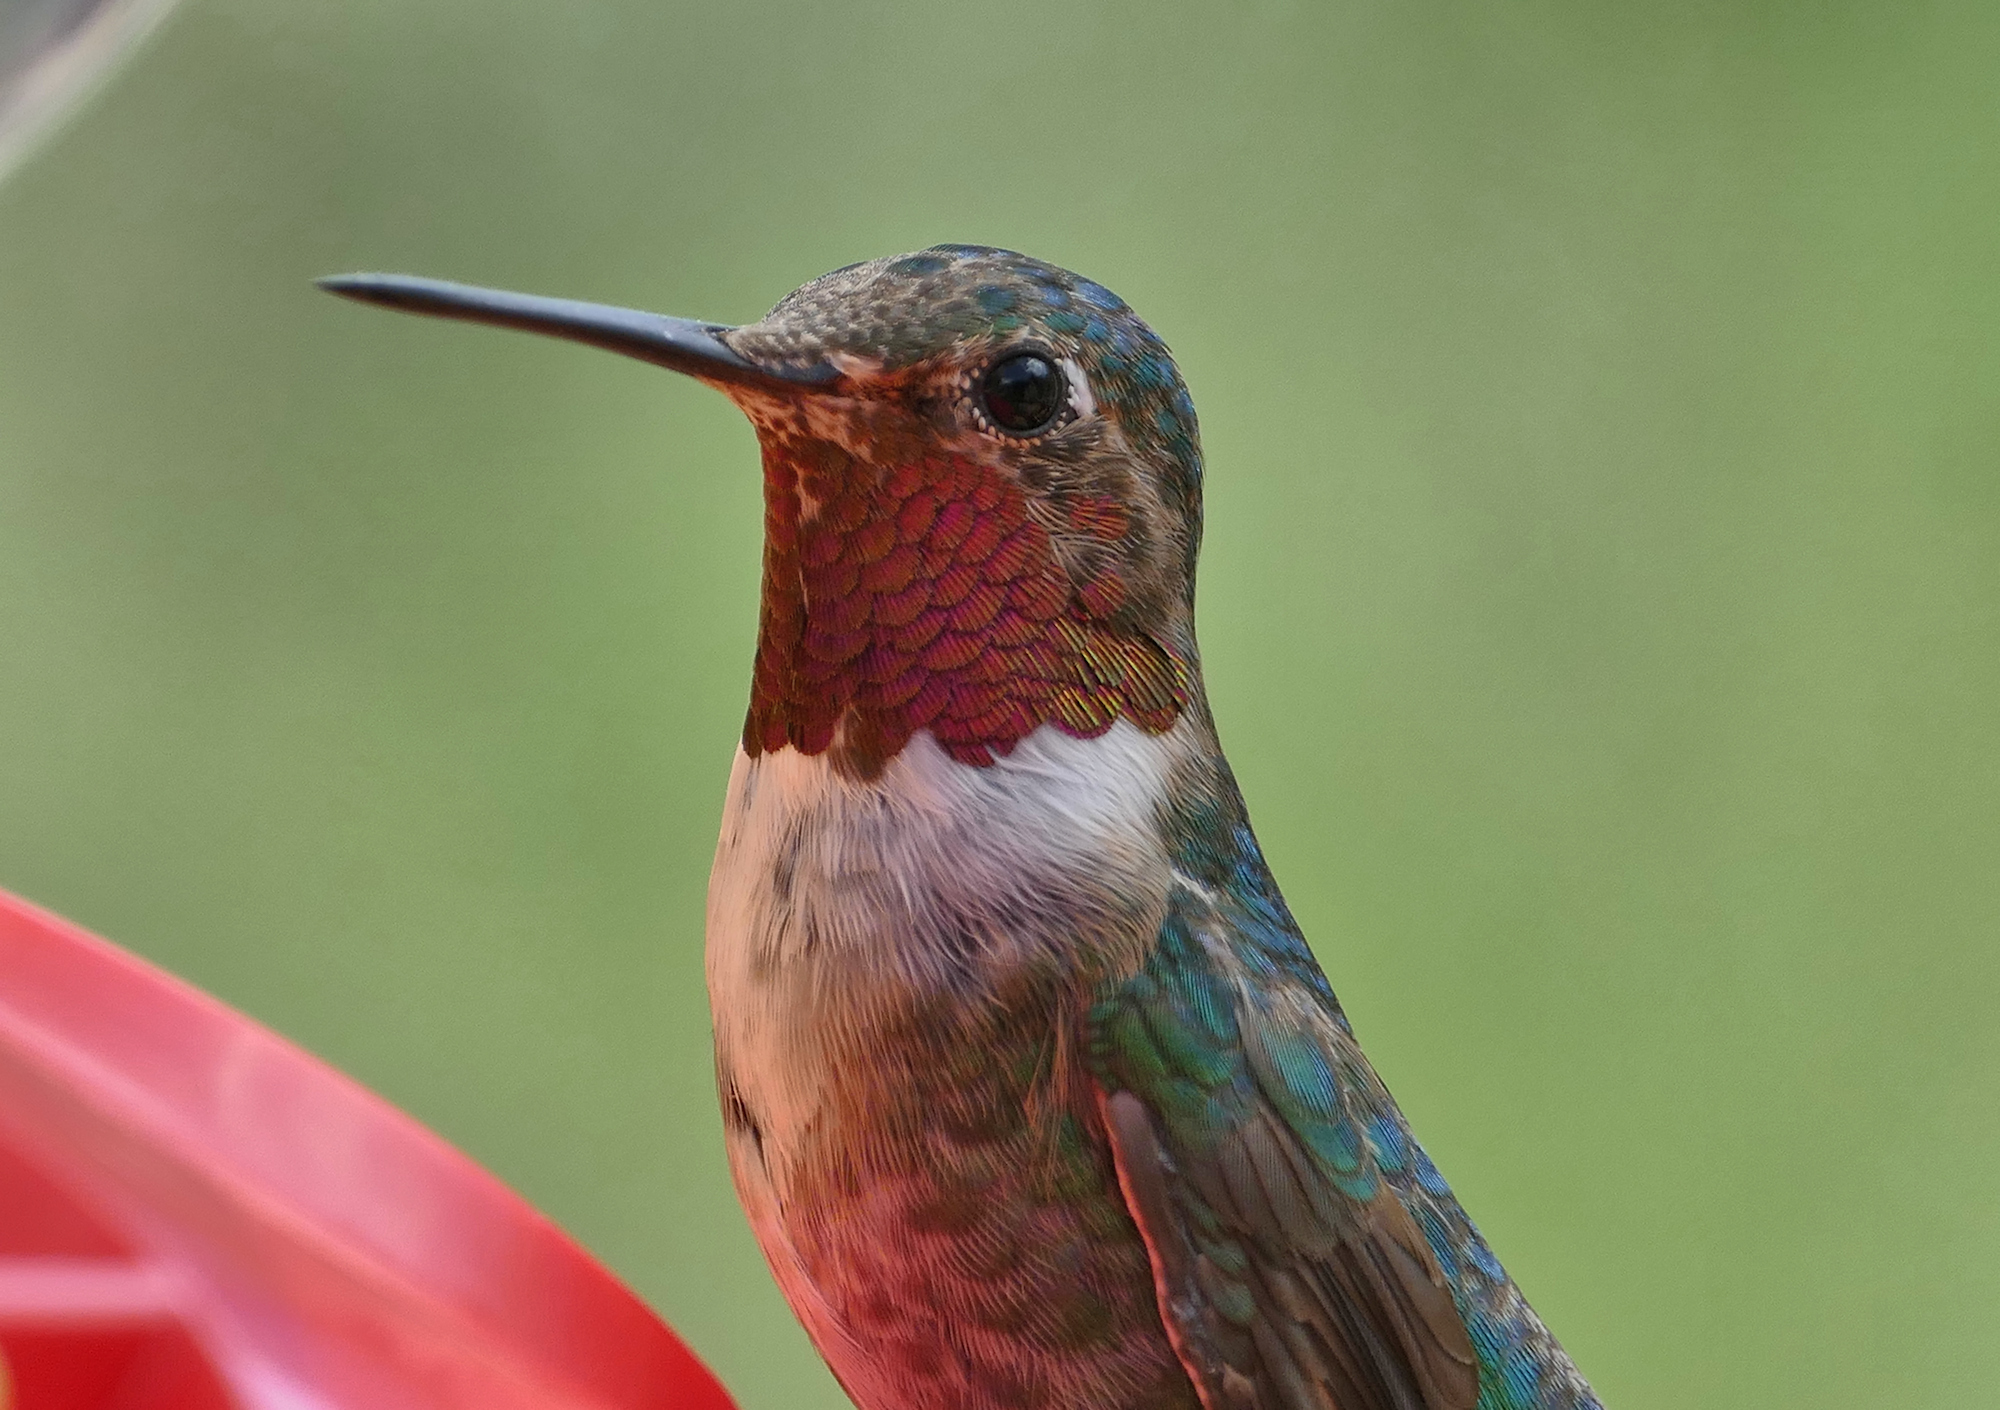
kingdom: Animalia
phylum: Chordata
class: Aves
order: Apodiformes
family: Trochilidae
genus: Selasphorus
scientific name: Selasphorus platycercus
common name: Broad-tailed hummingbird
